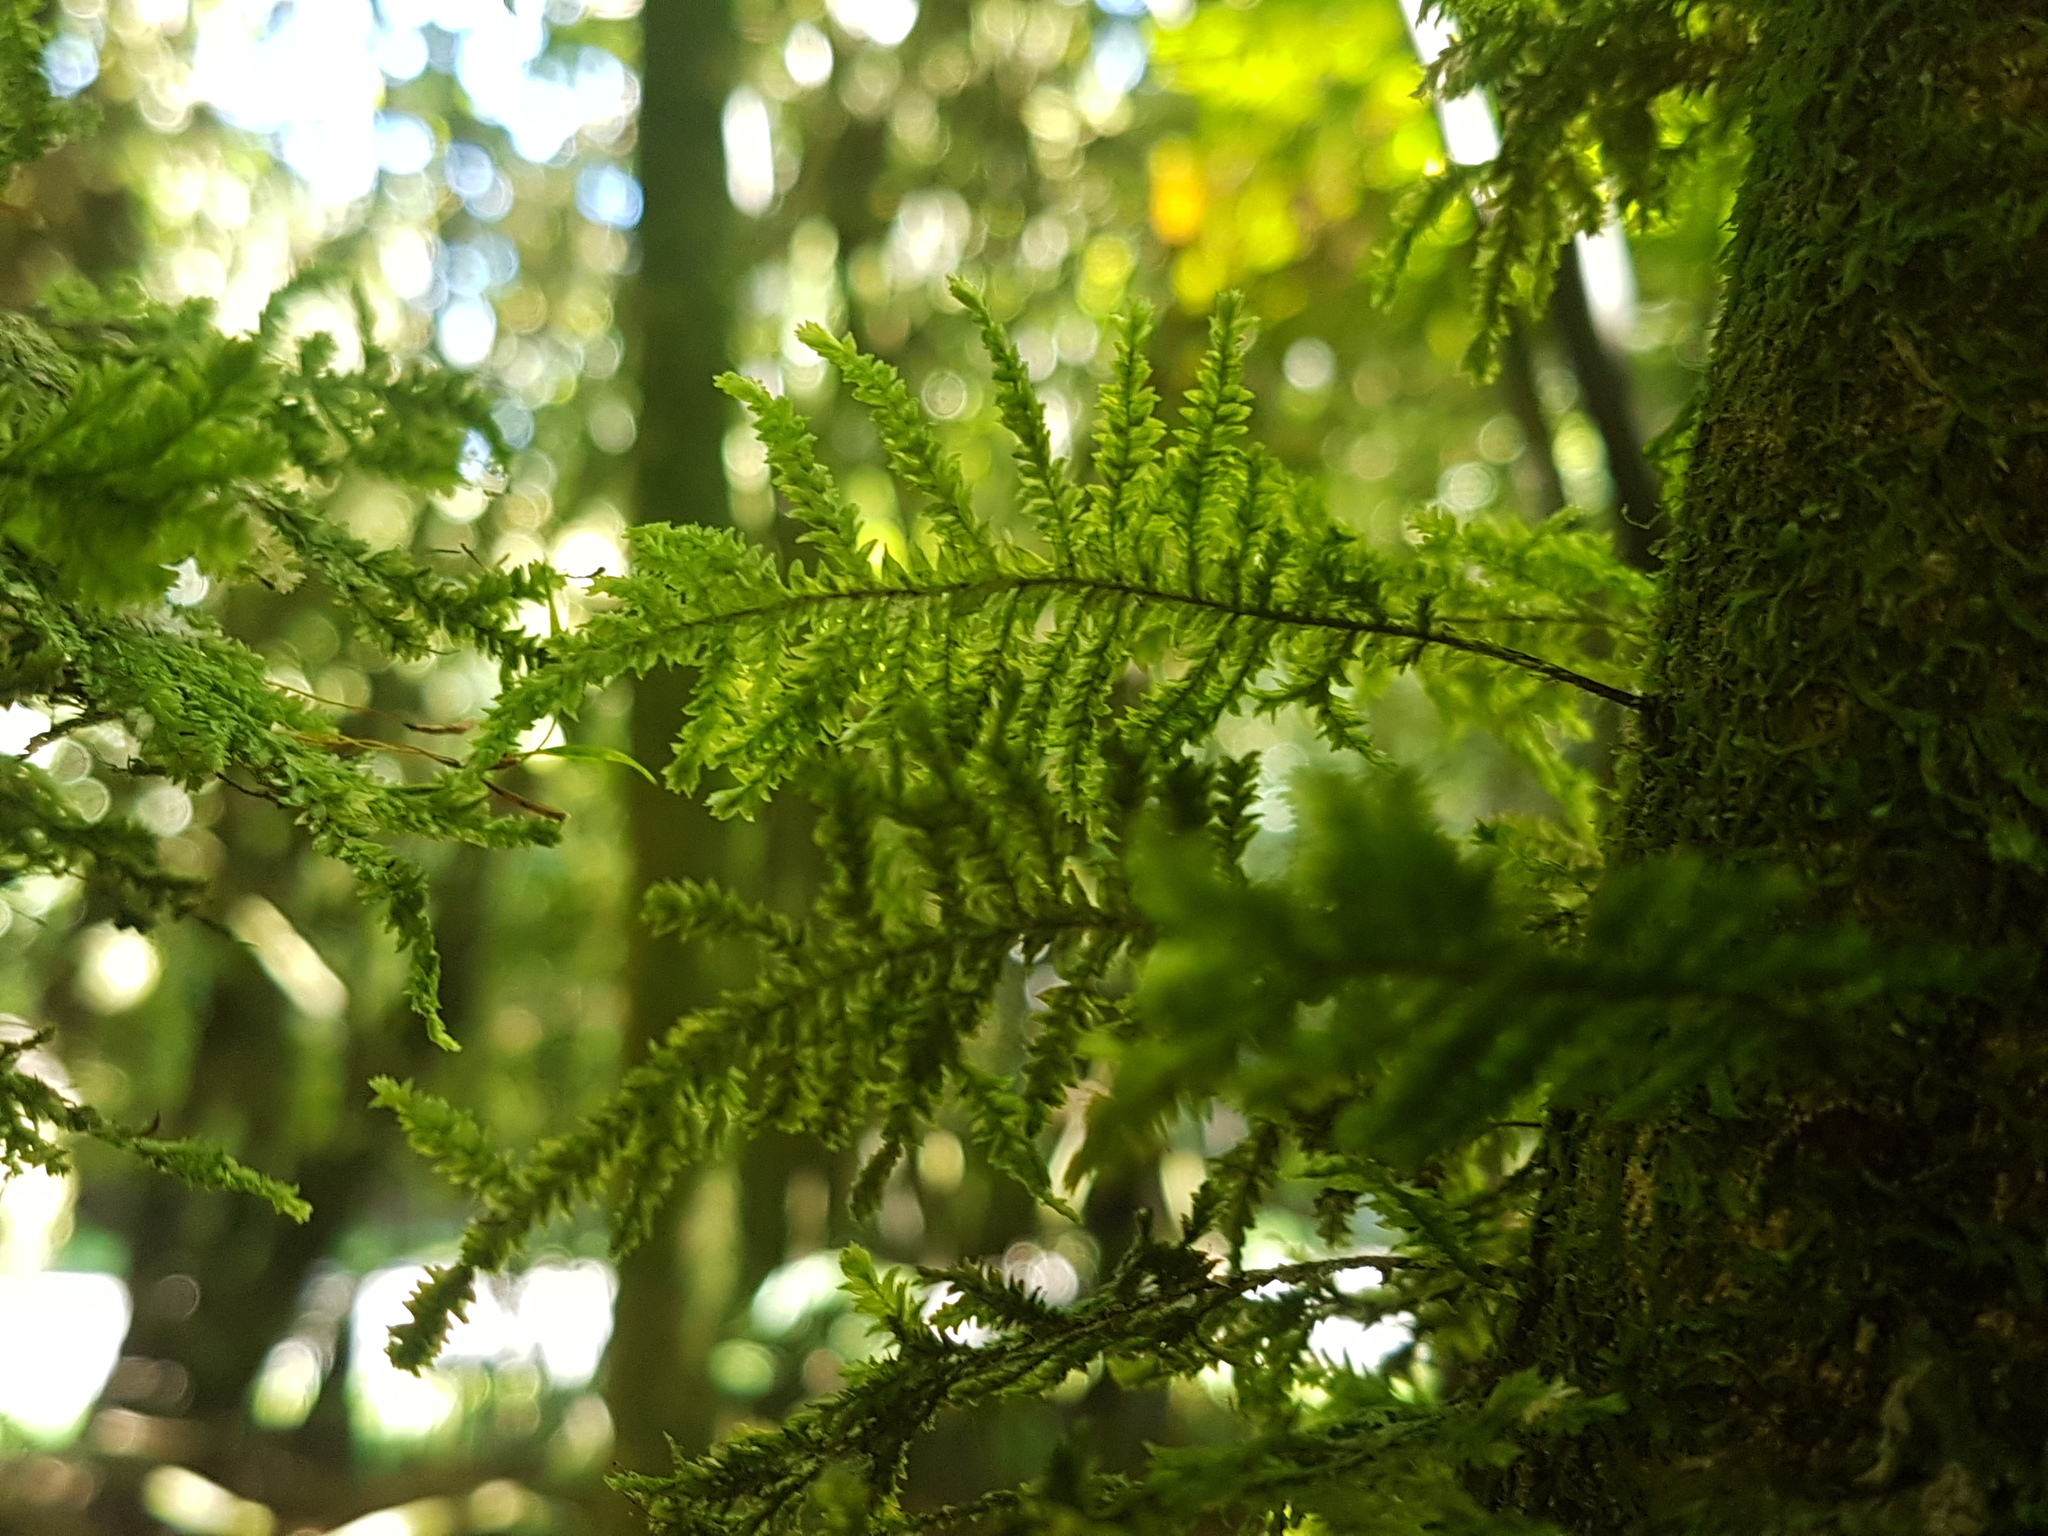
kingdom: Plantae
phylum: Bryophyta
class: Bryopsida
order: Hypopterygiales
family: Hypopterygiaceae
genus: Lopidium
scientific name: Lopidium concinnum
